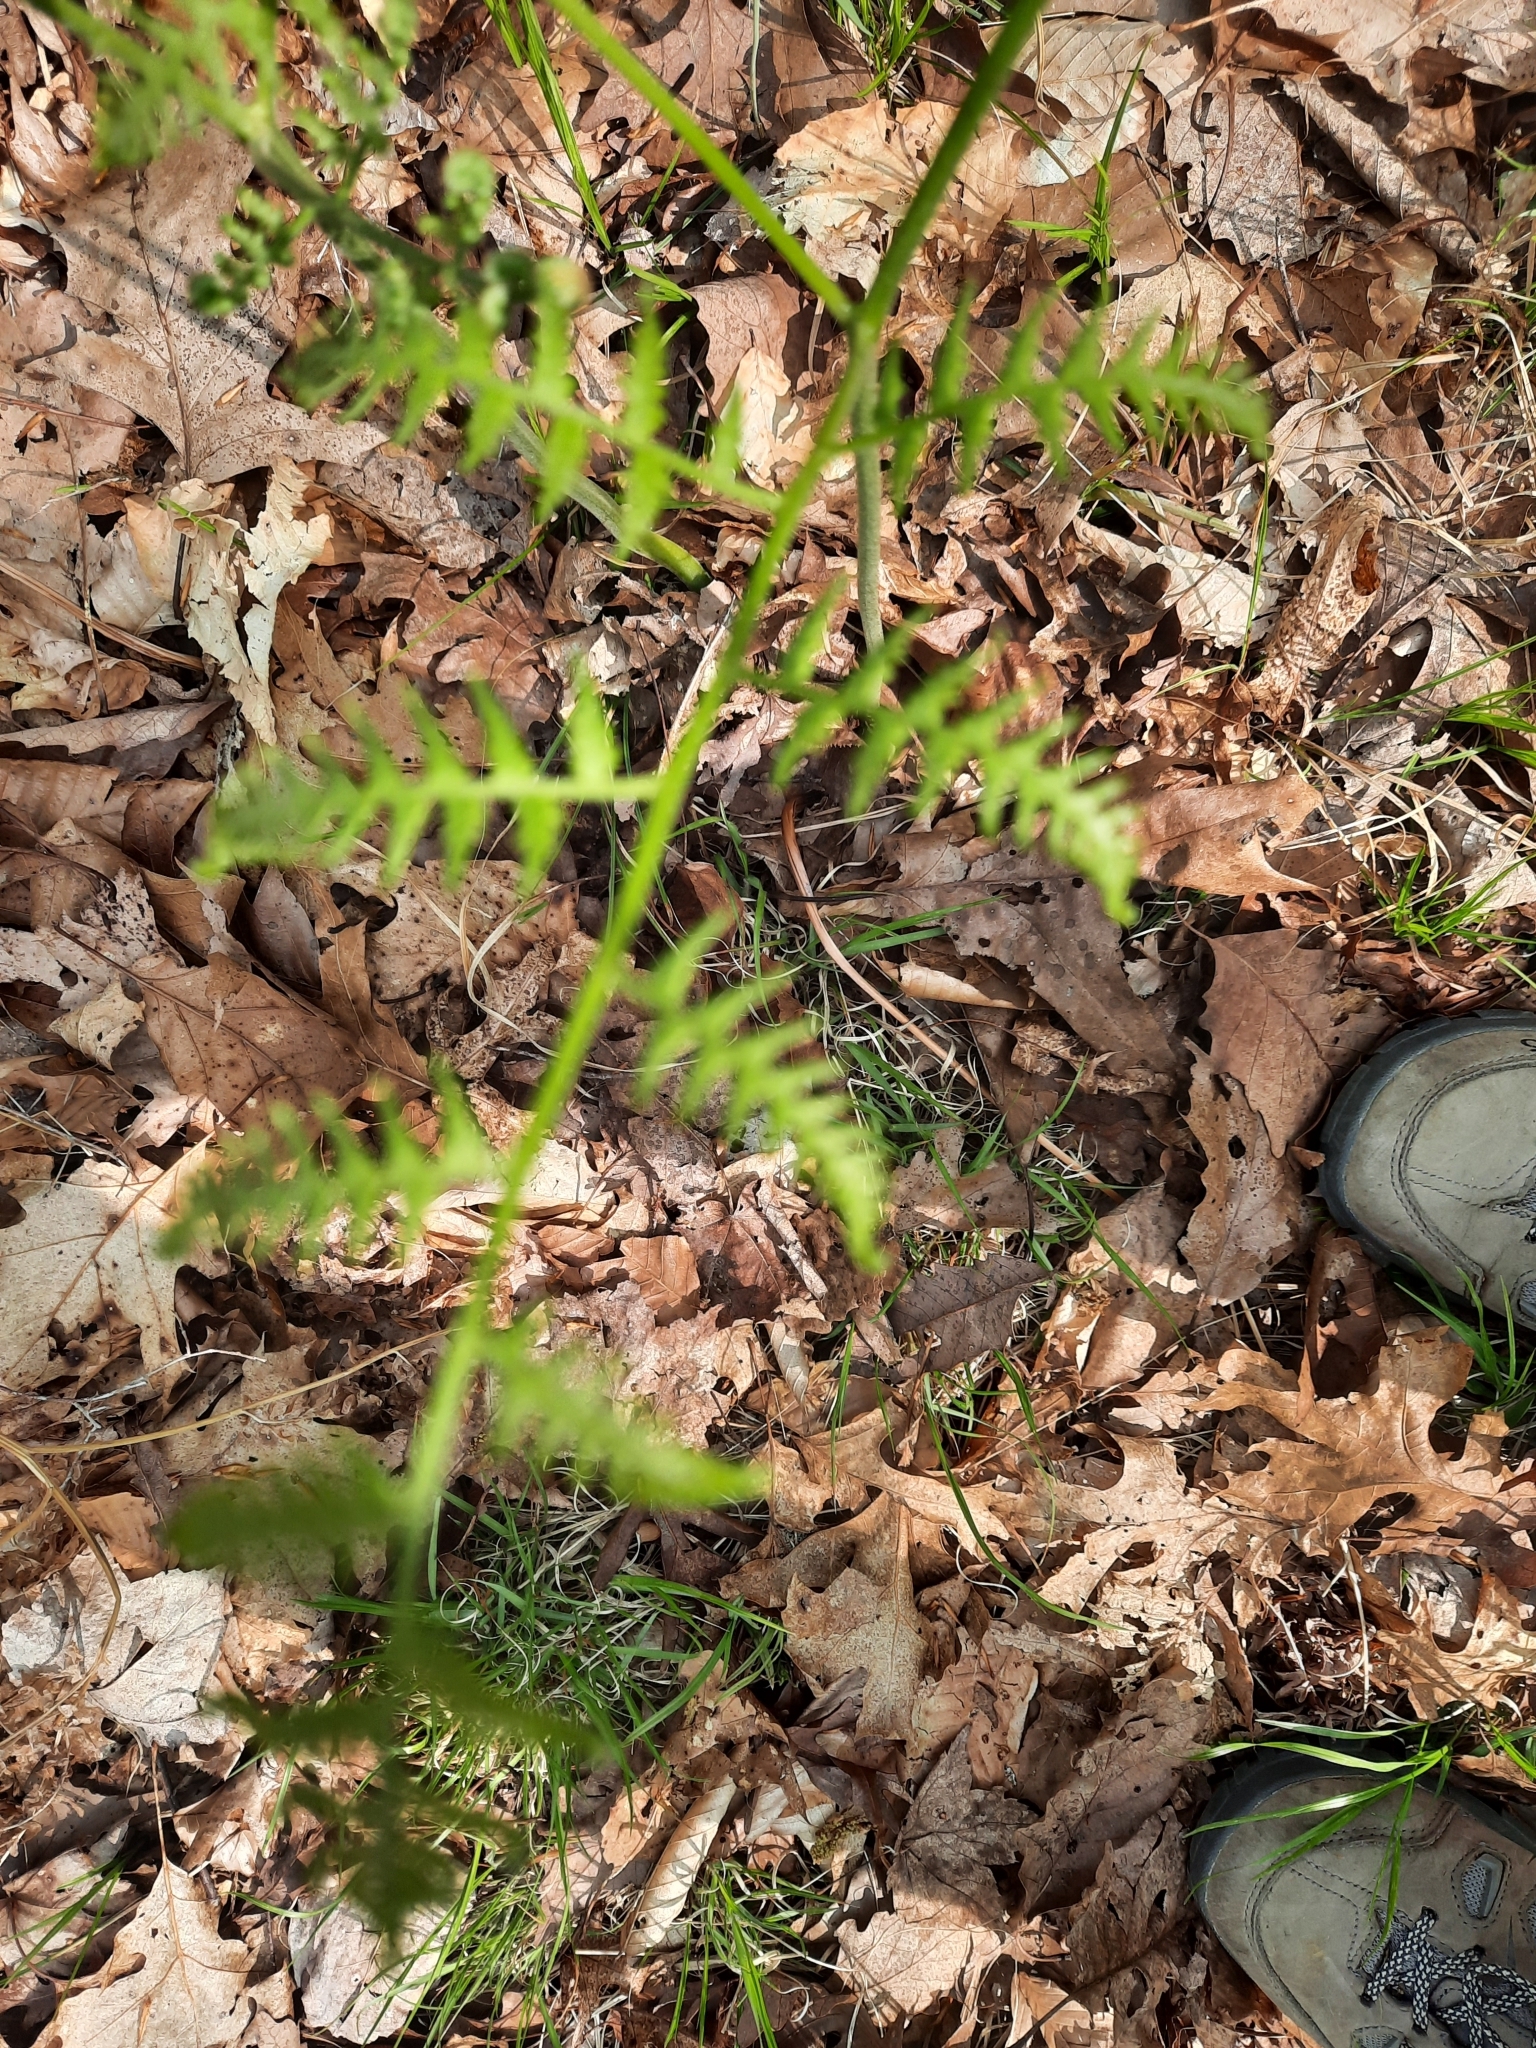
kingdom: Plantae
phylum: Tracheophyta
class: Polypodiopsida
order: Polypodiales
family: Dennstaedtiaceae
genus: Pteridium
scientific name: Pteridium aquilinum
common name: Bracken
